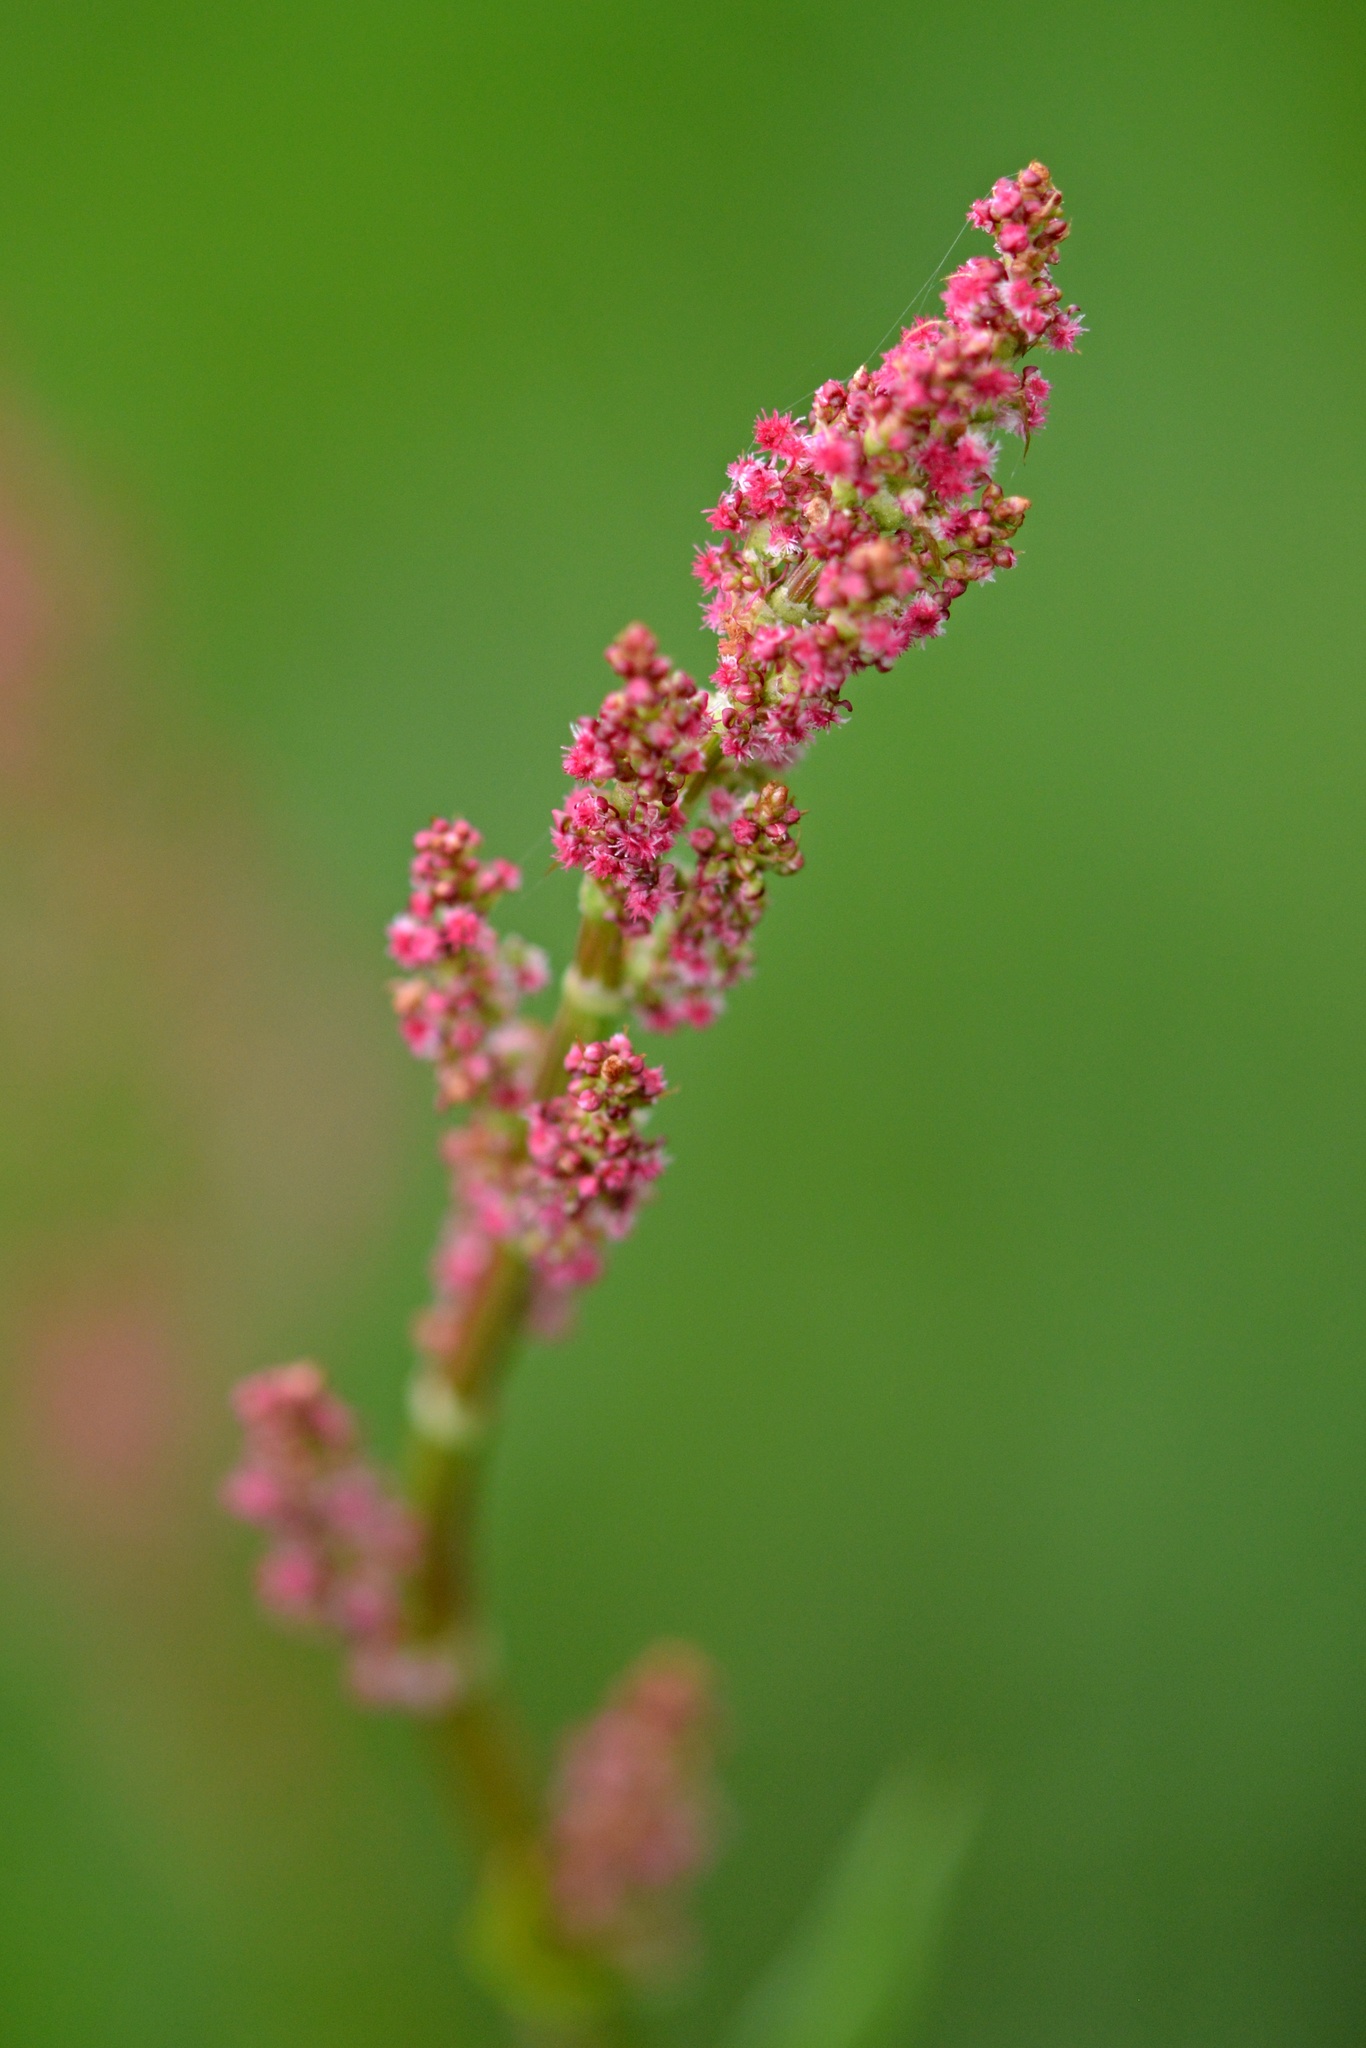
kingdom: Plantae
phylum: Tracheophyta
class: Magnoliopsida
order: Caryophyllales
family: Polygonaceae
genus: Rumex
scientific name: Rumex acetosa
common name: Garden sorrel
